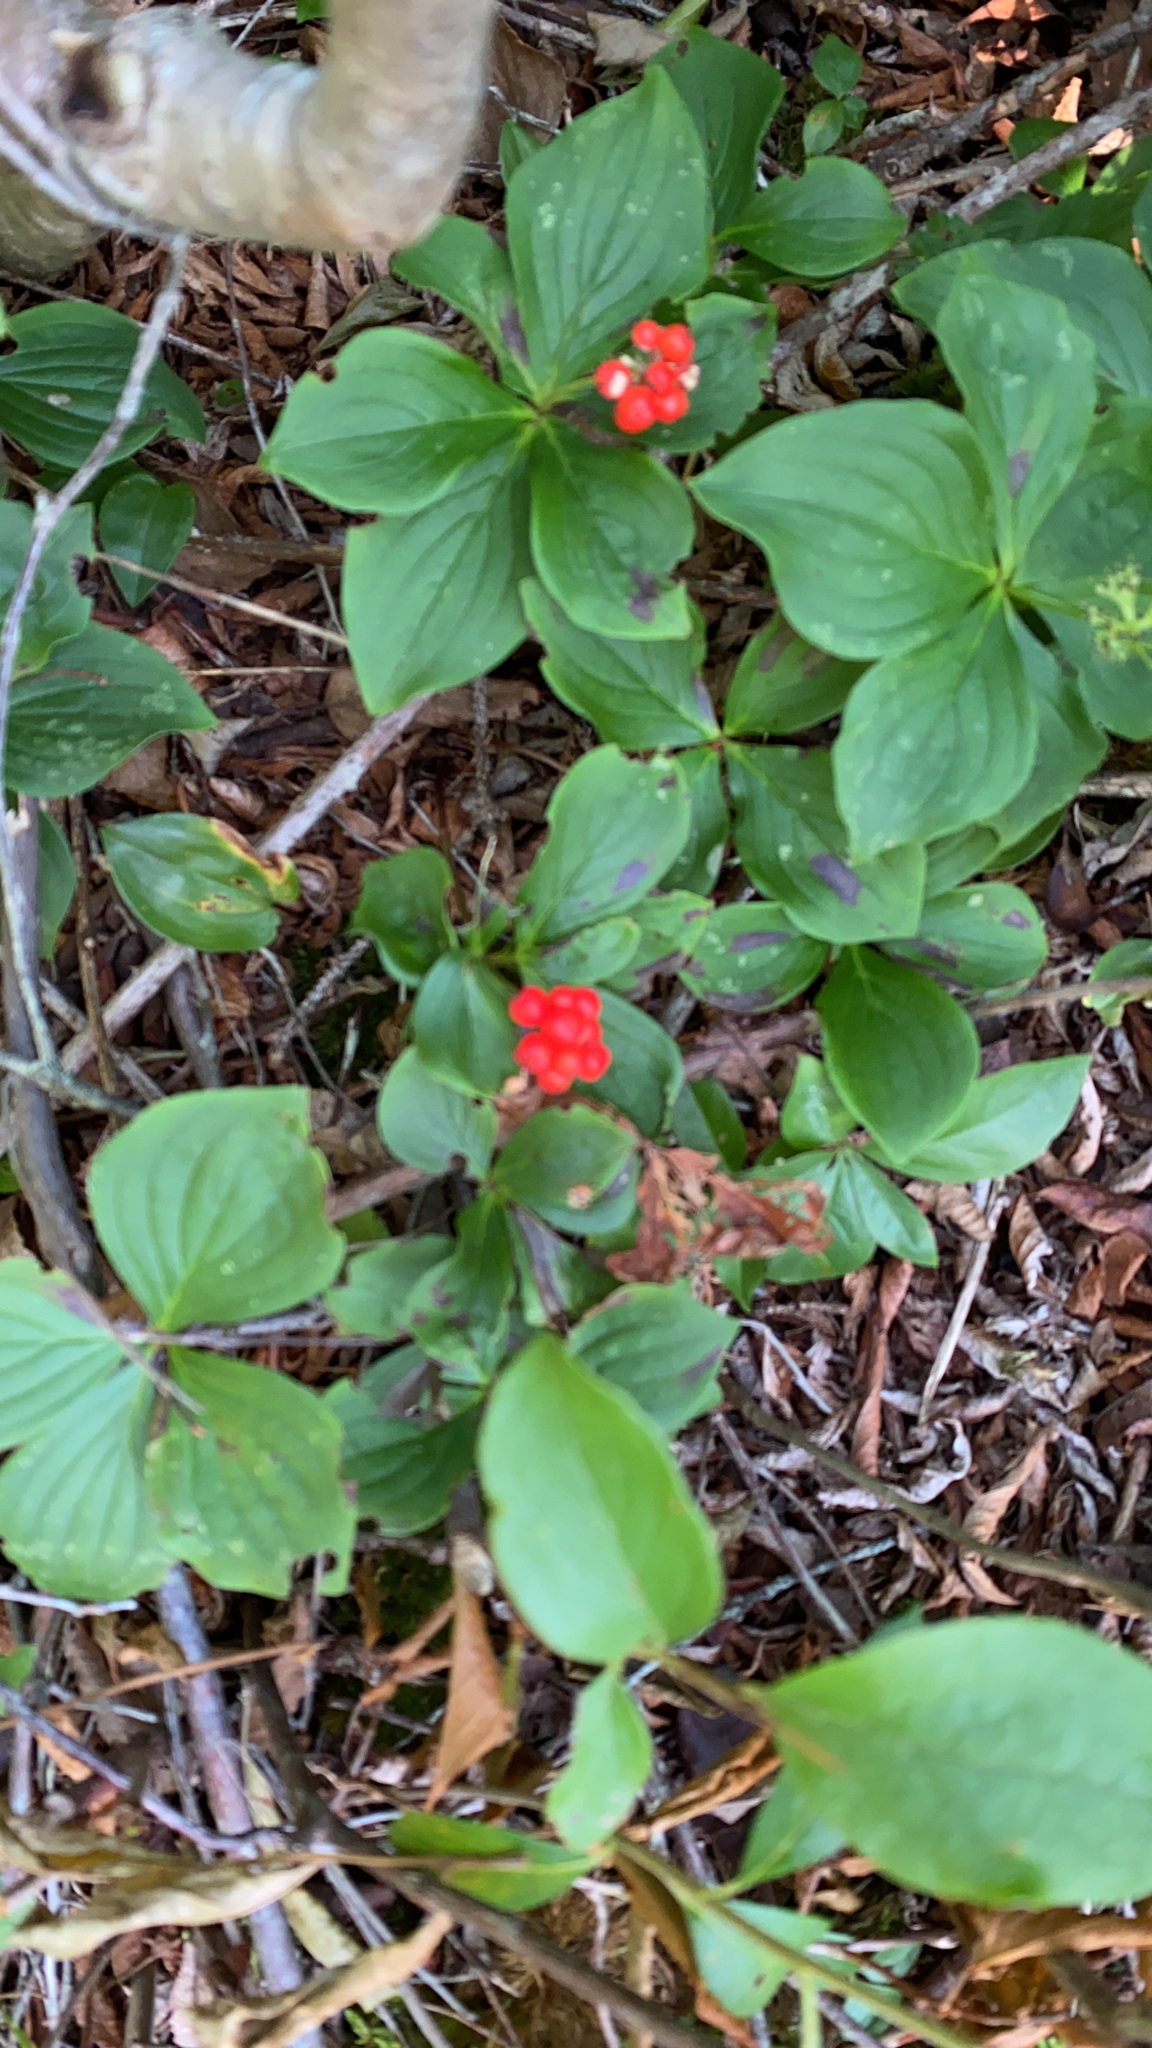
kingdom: Plantae
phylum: Tracheophyta
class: Magnoliopsida
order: Cornales
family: Cornaceae
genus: Cornus
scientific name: Cornus canadensis
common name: Creeping dogwood
